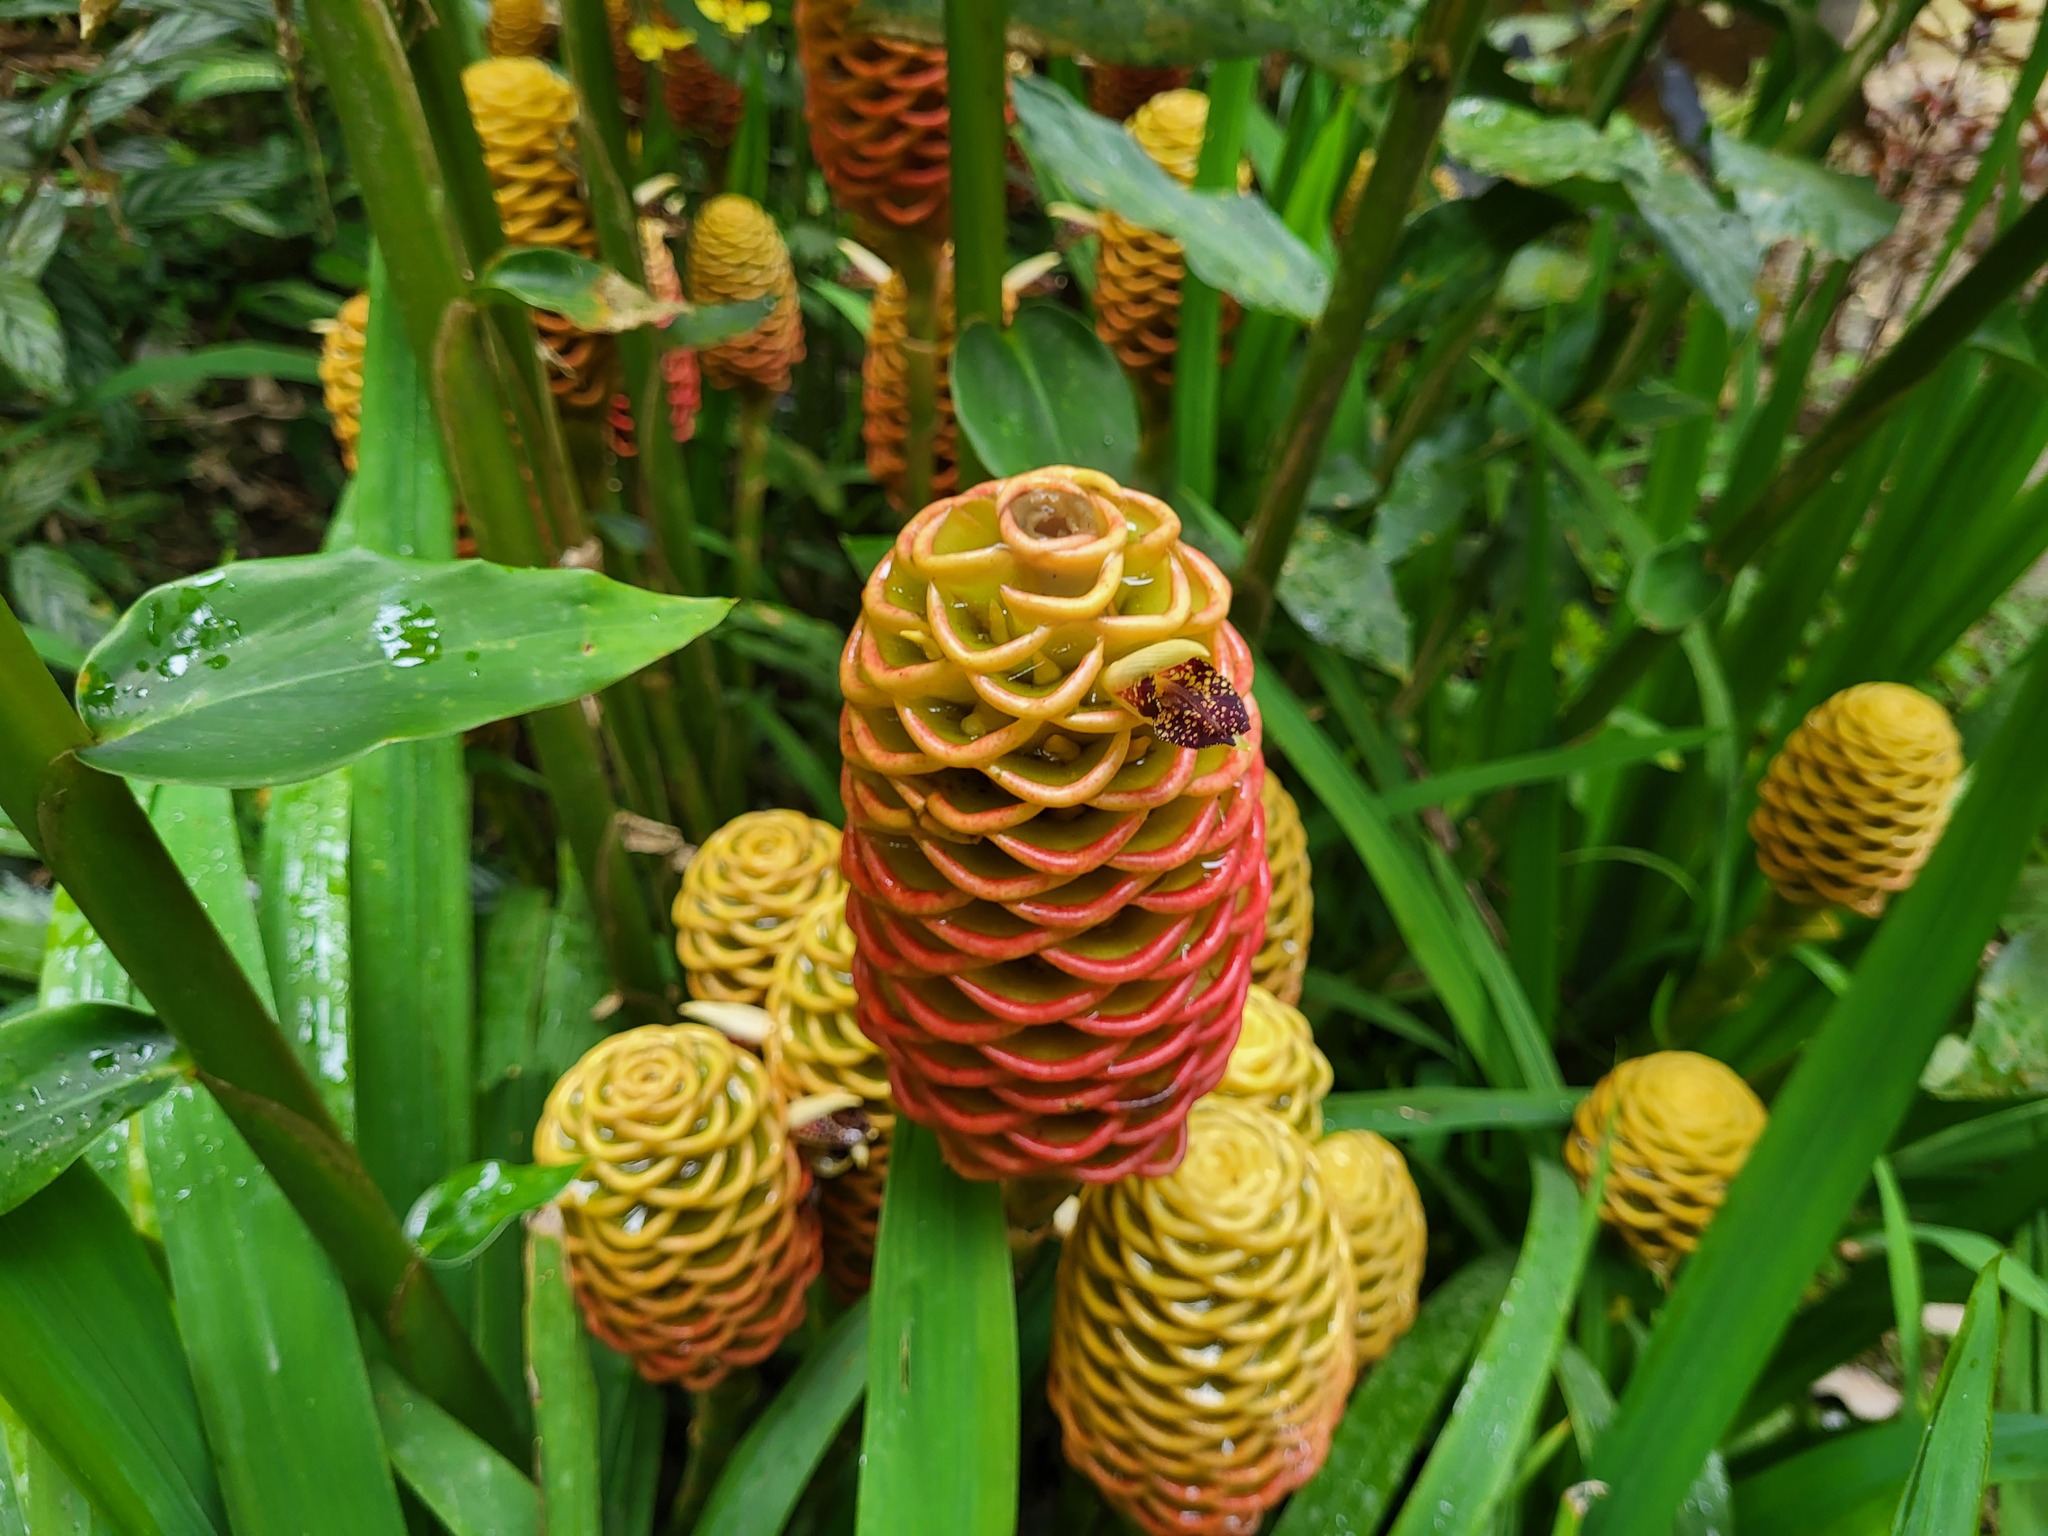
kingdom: Plantae
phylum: Tracheophyta
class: Liliopsida
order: Zingiberales
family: Zingiberaceae
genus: Zingiber
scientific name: Zingiber spectabile
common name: Beehive ginger
